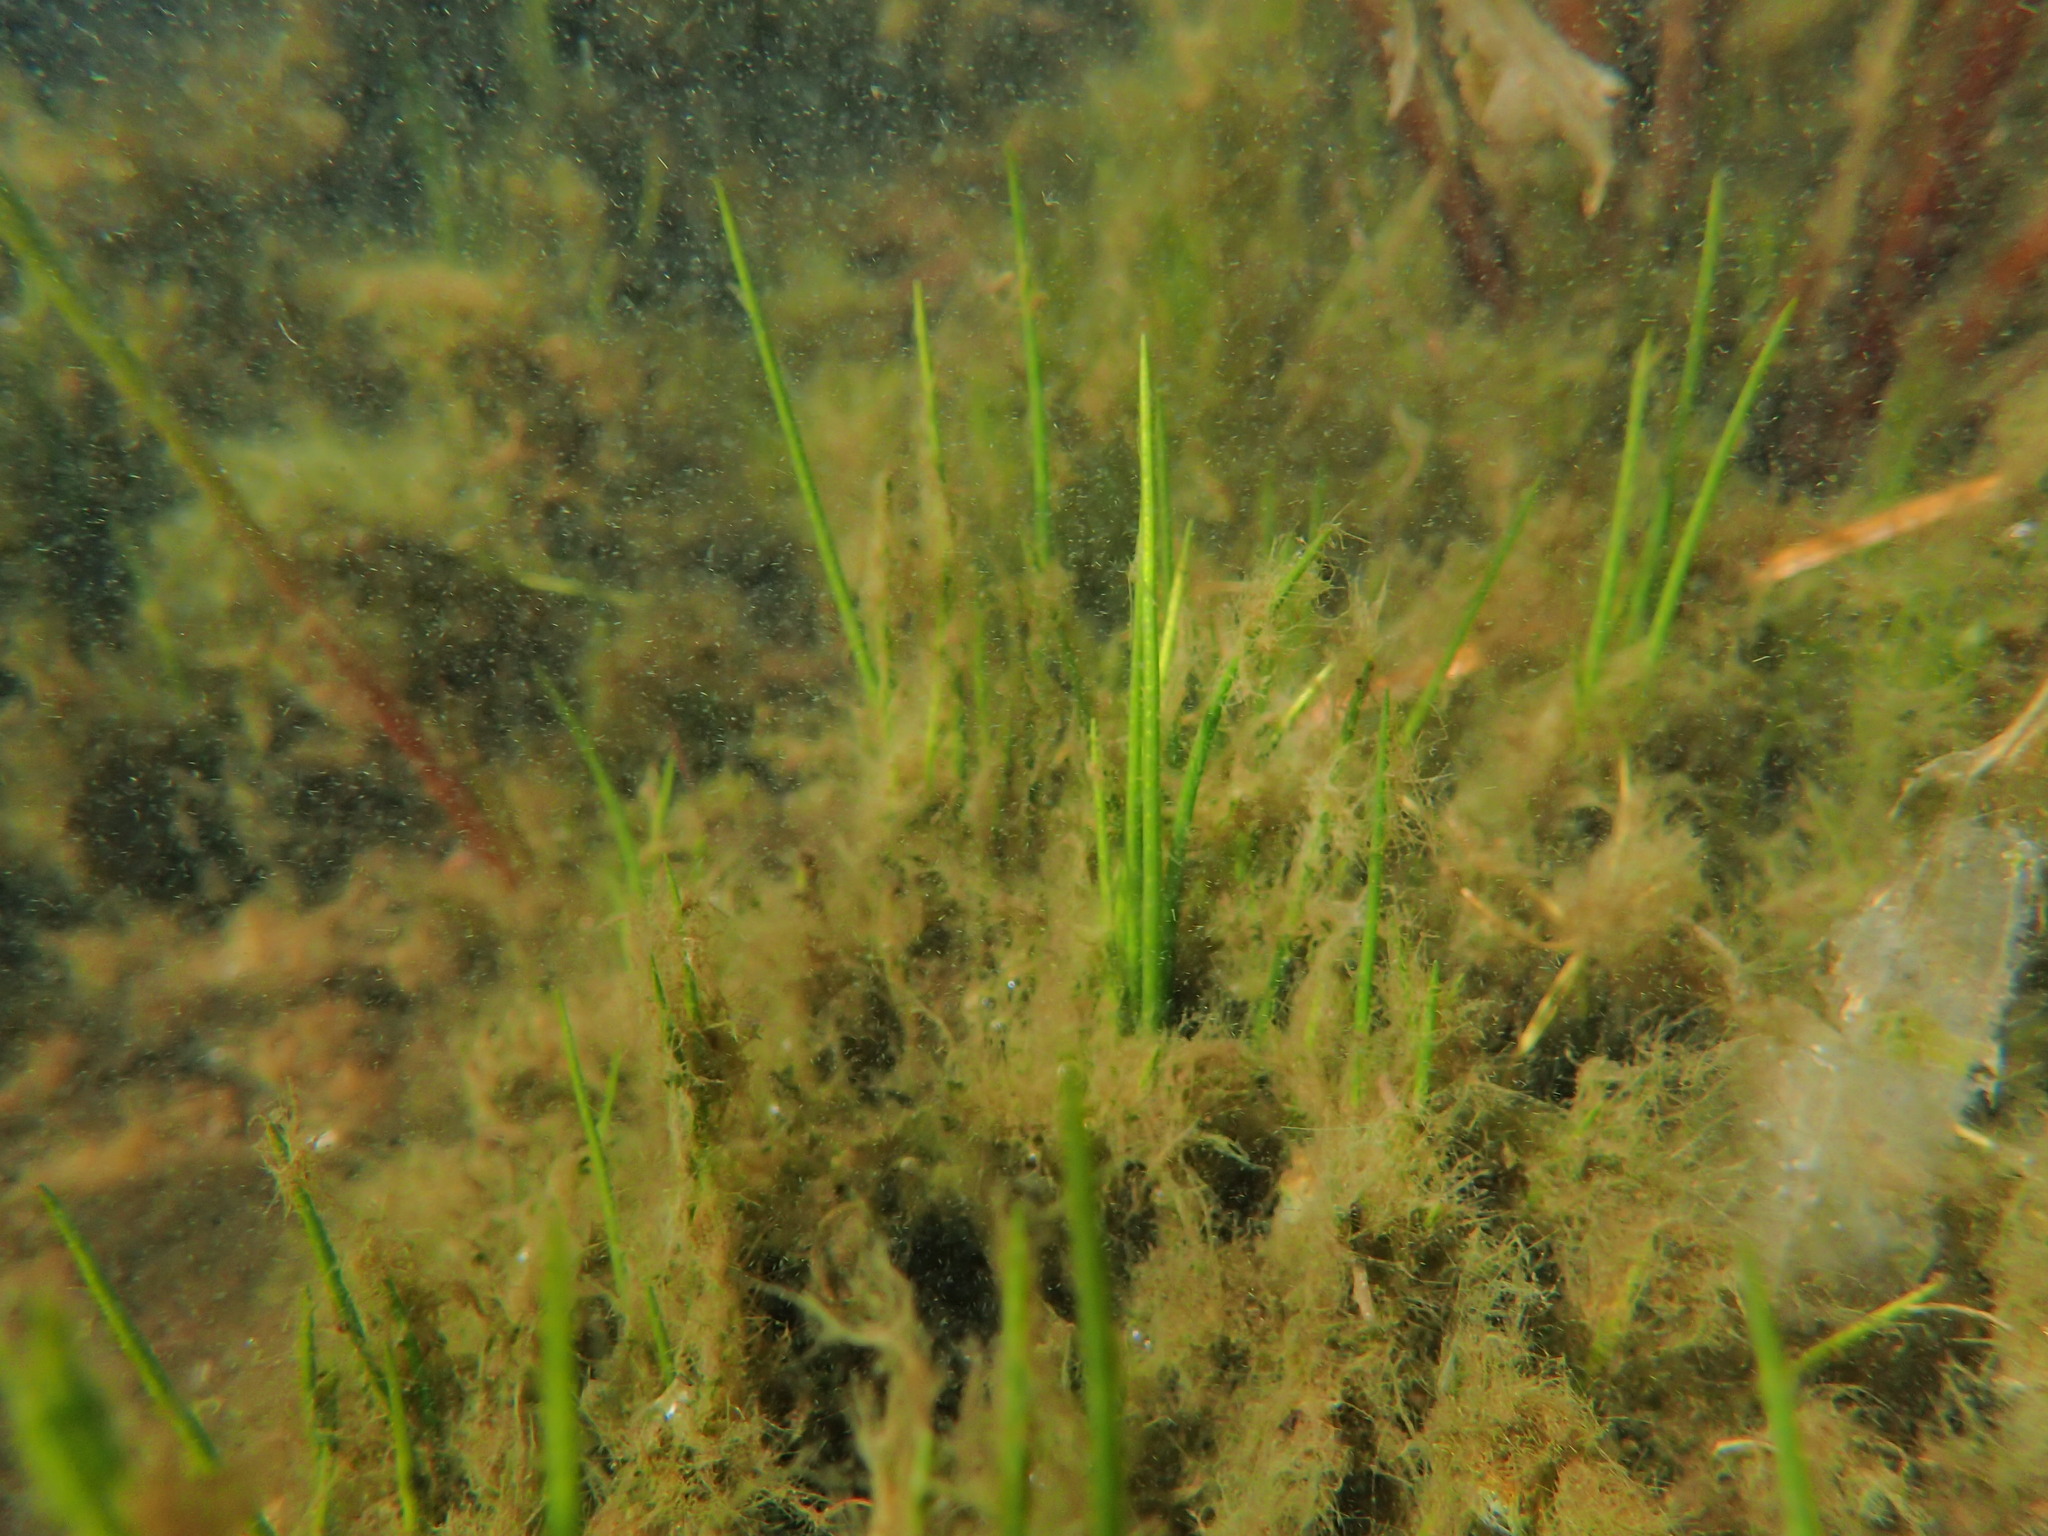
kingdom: Plantae
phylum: Tracheophyta
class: Lycopodiopsida
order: Isoetales
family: Isoetaceae
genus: Isoetes
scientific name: Isoetes occidentalis
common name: Western quillwort
